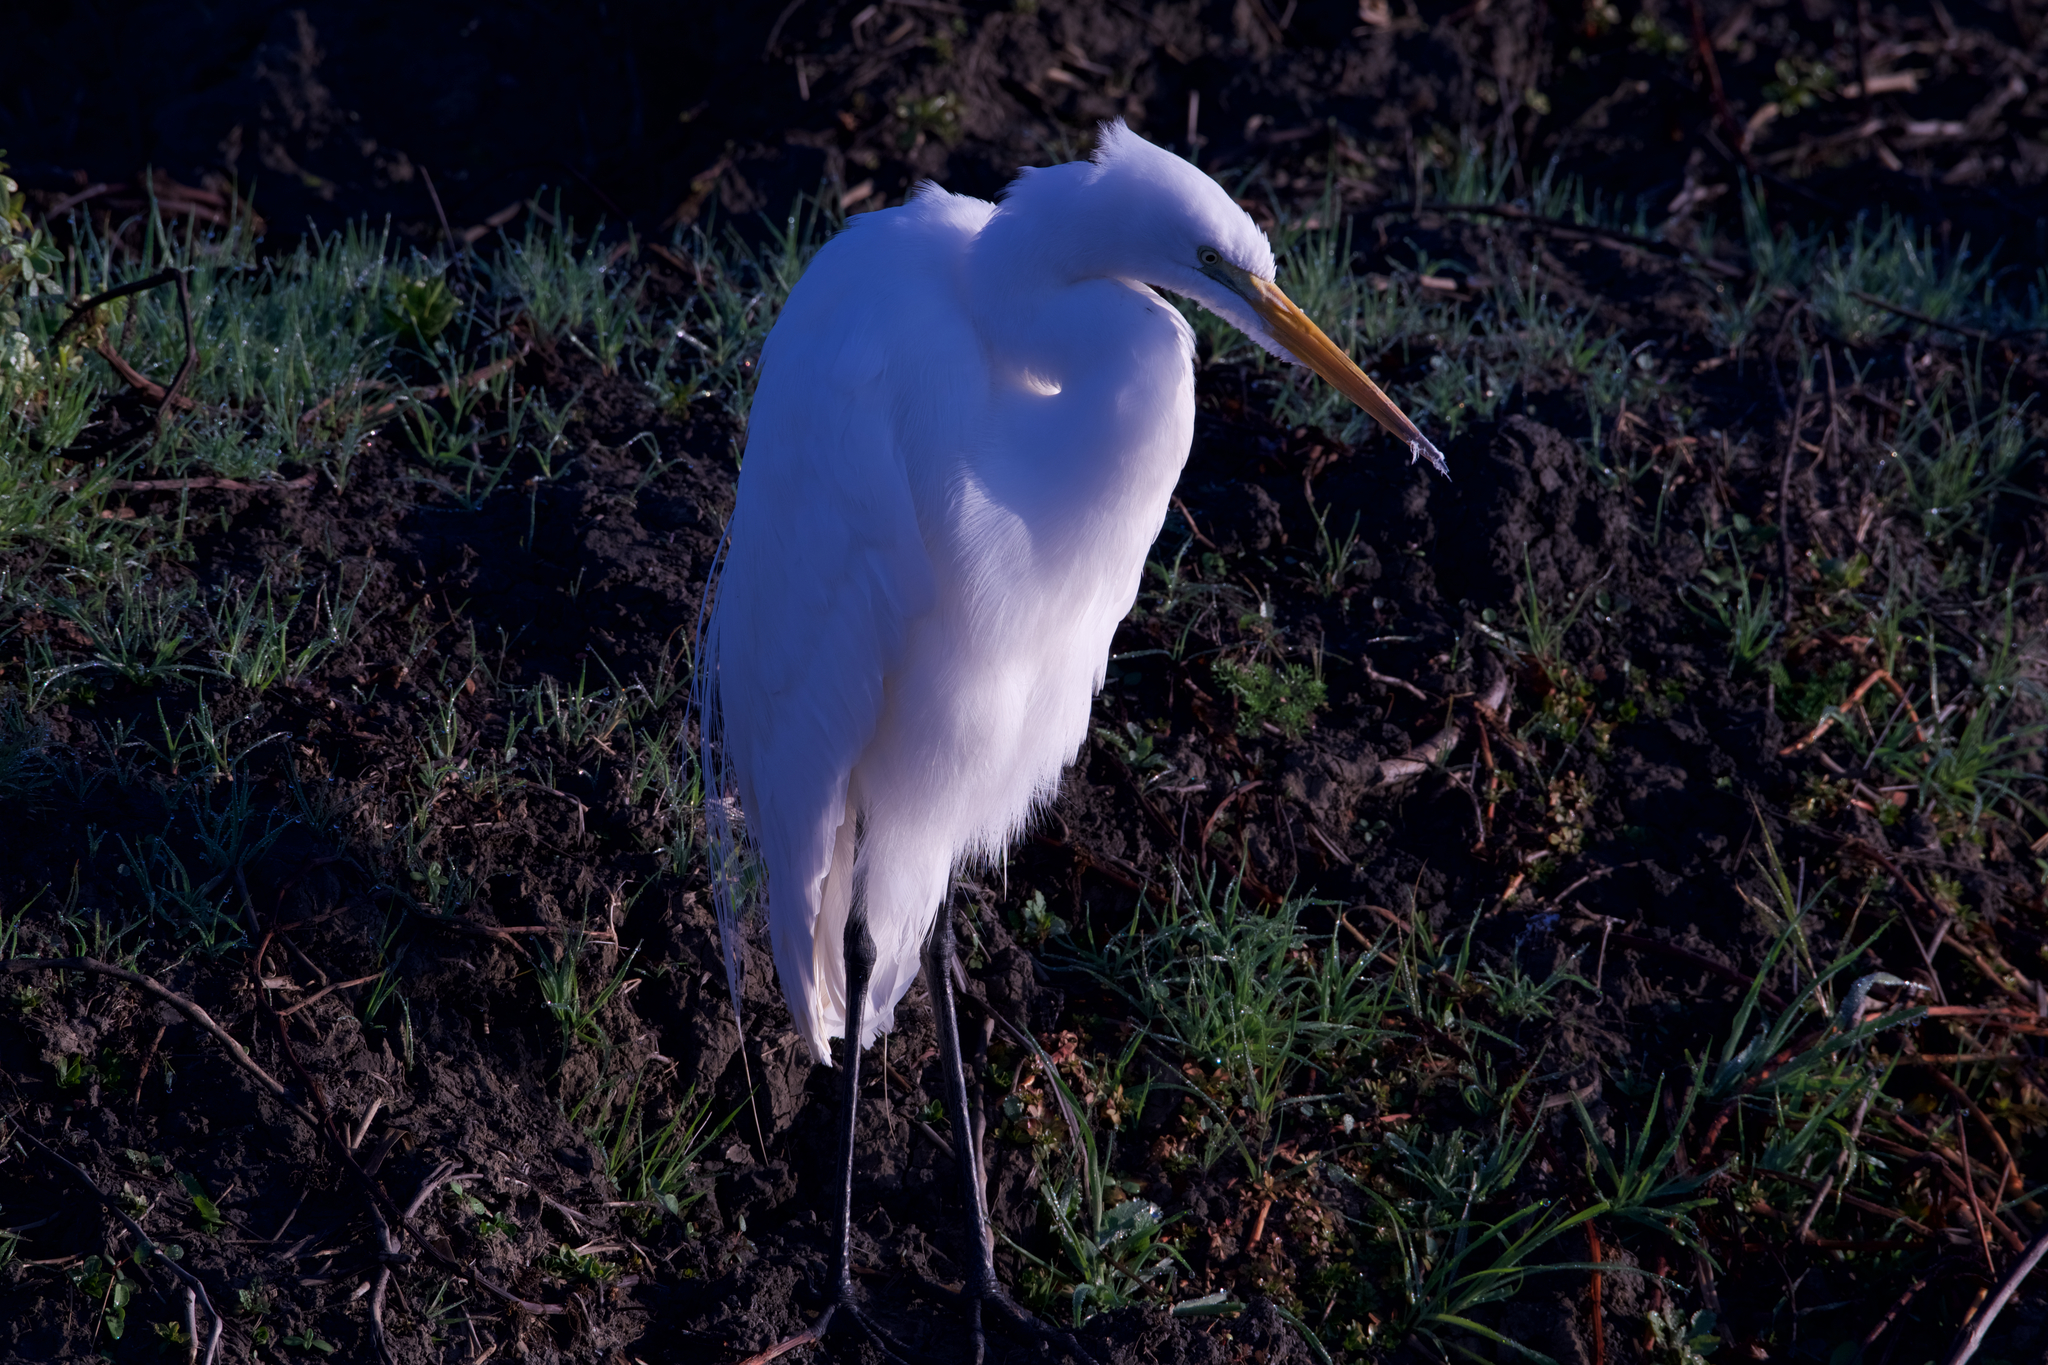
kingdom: Animalia
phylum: Chordata
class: Aves
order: Pelecaniformes
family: Ardeidae
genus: Ardea
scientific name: Ardea alba
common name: Great egret
